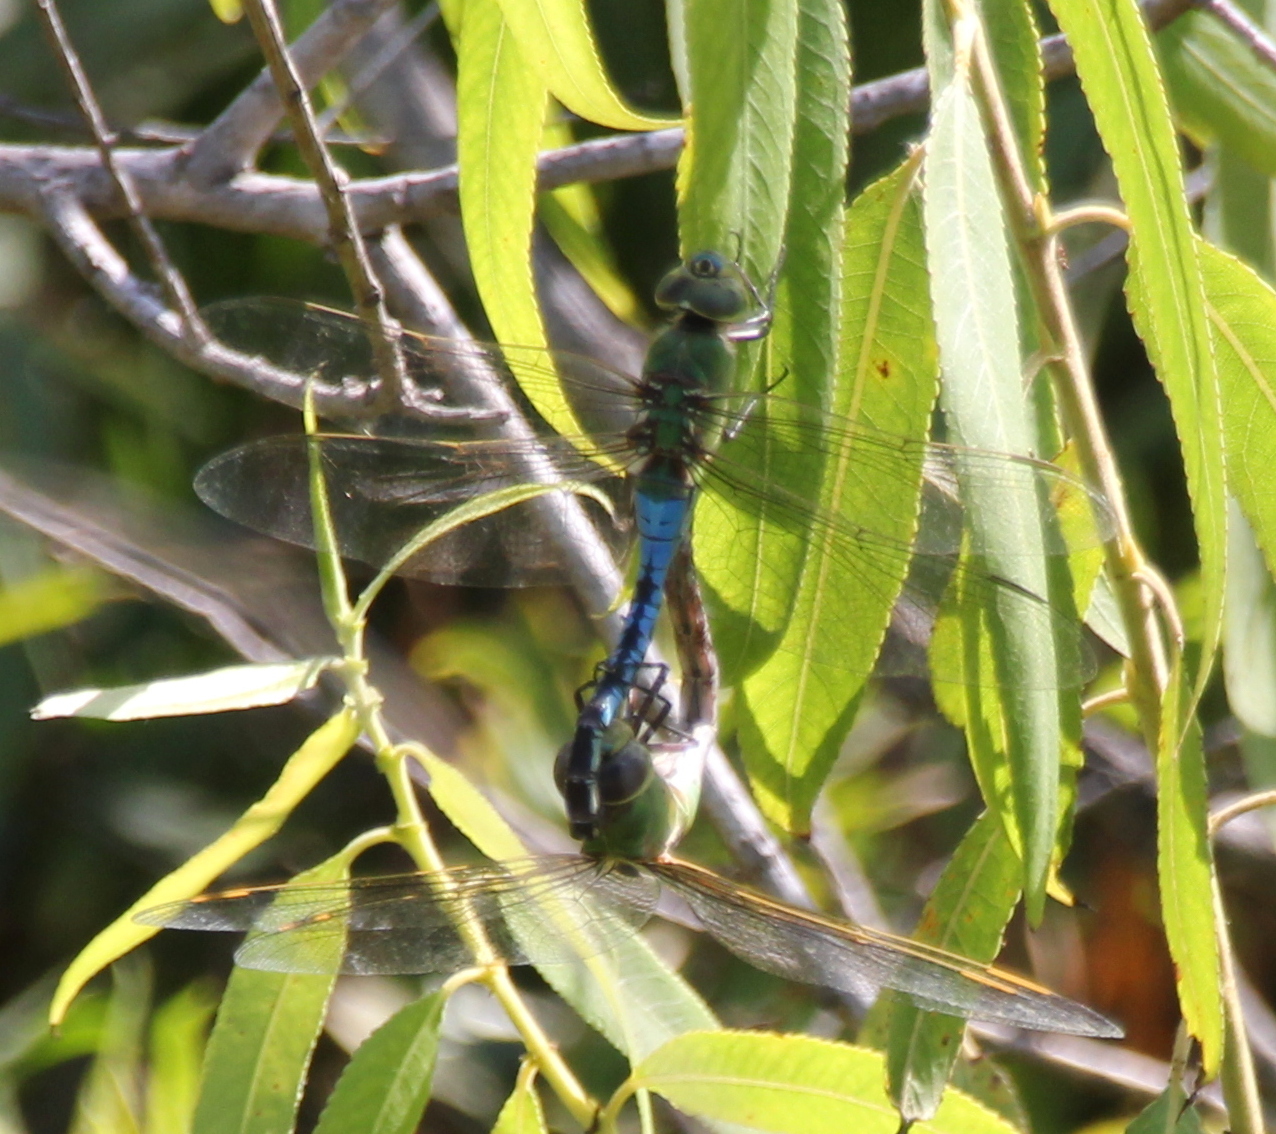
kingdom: Animalia
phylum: Arthropoda
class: Insecta
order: Odonata
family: Aeshnidae
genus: Anax
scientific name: Anax junius
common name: Common green darner
